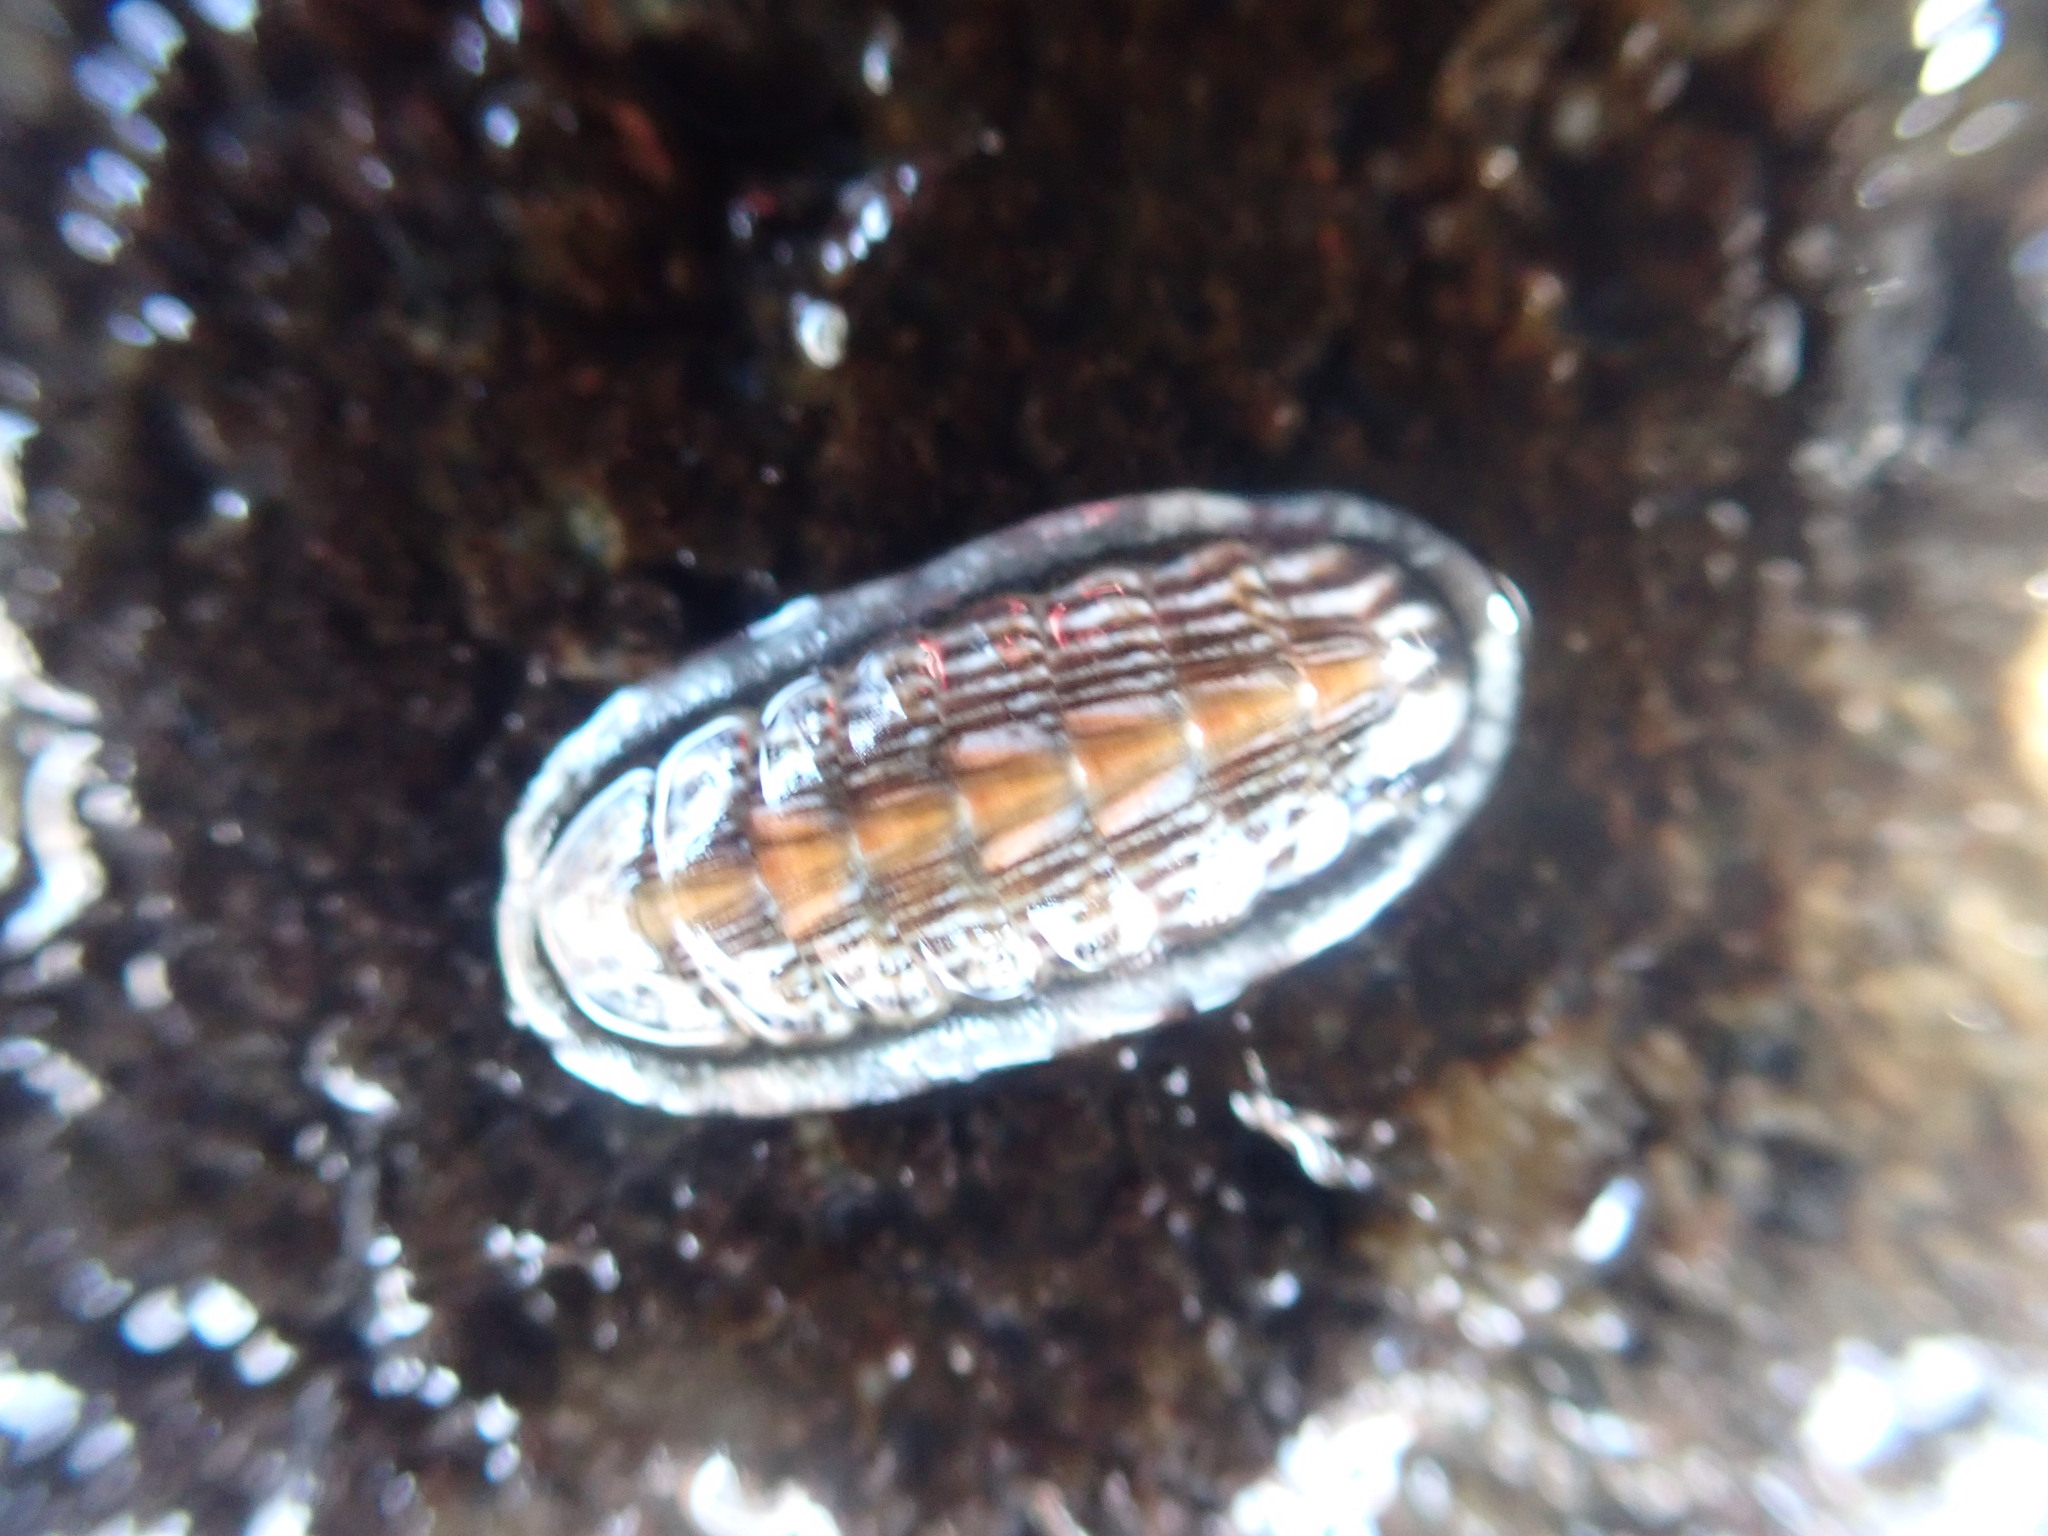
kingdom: Animalia
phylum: Mollusca
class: Polyplacophora
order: Chitonida
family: Ischnochitonidae
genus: Ischnochiton
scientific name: Ischnochiton maorianus
